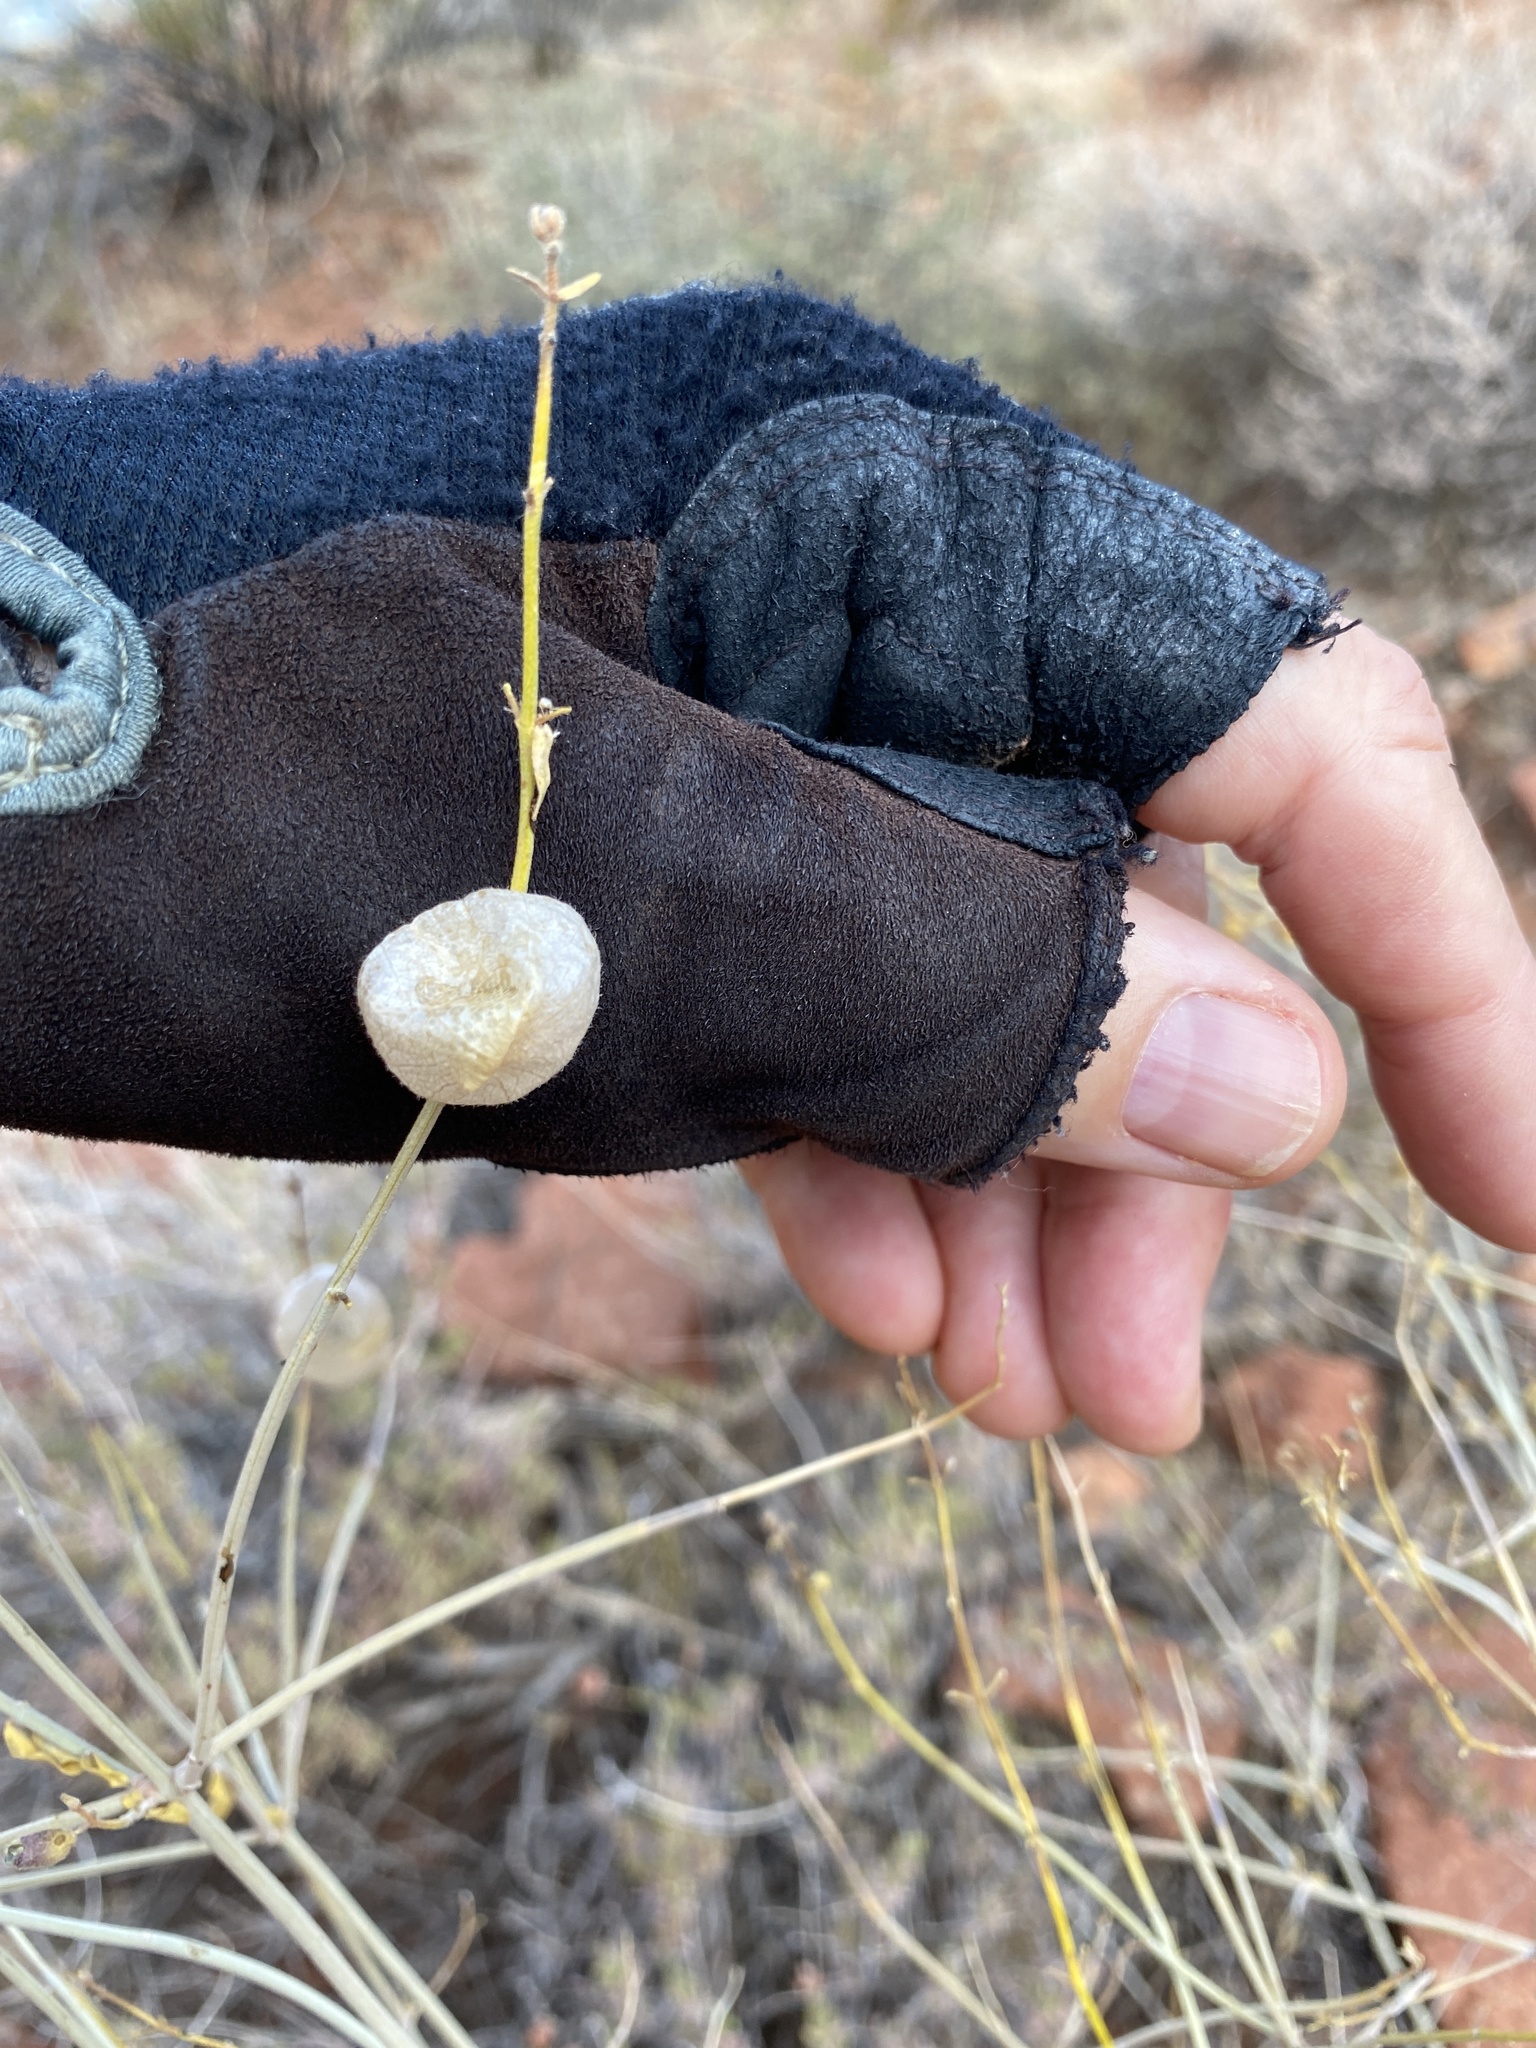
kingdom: Plantae
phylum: Tracheophyta
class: Magnoliopsida
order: Lamiales
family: Lamiaceae
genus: Scutellaria
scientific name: Scutellaria mexicana
